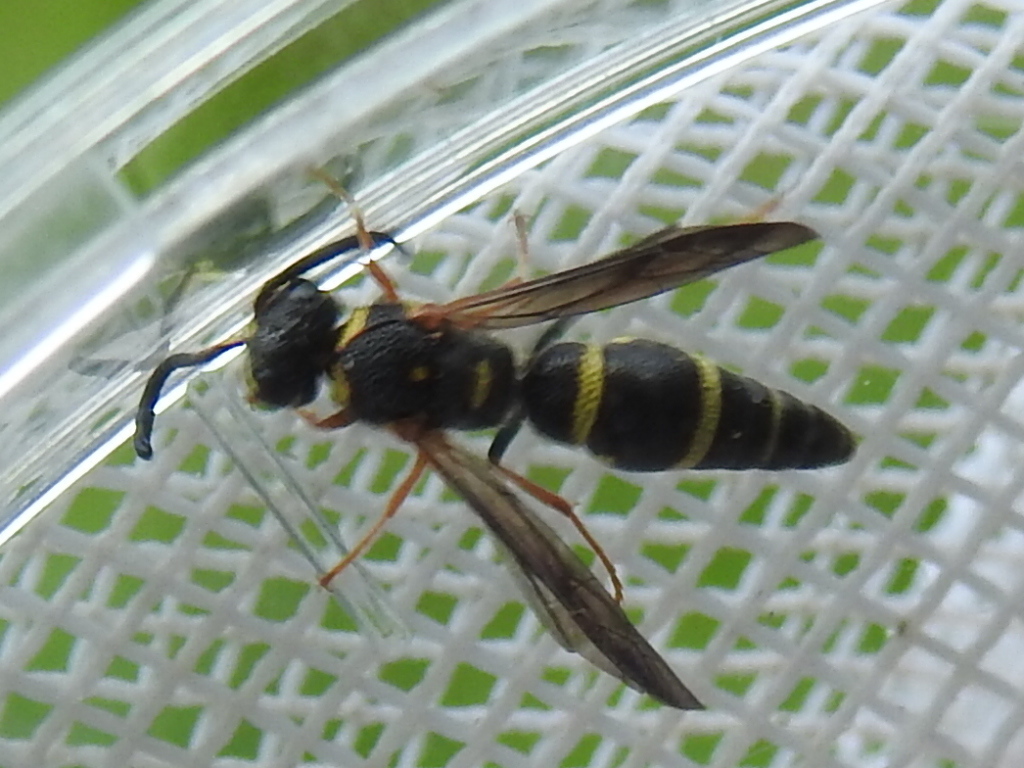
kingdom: Animalia
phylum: Arthropoda
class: Insecta
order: Hymenoptera
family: Eumenidae
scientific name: Eumenidae
